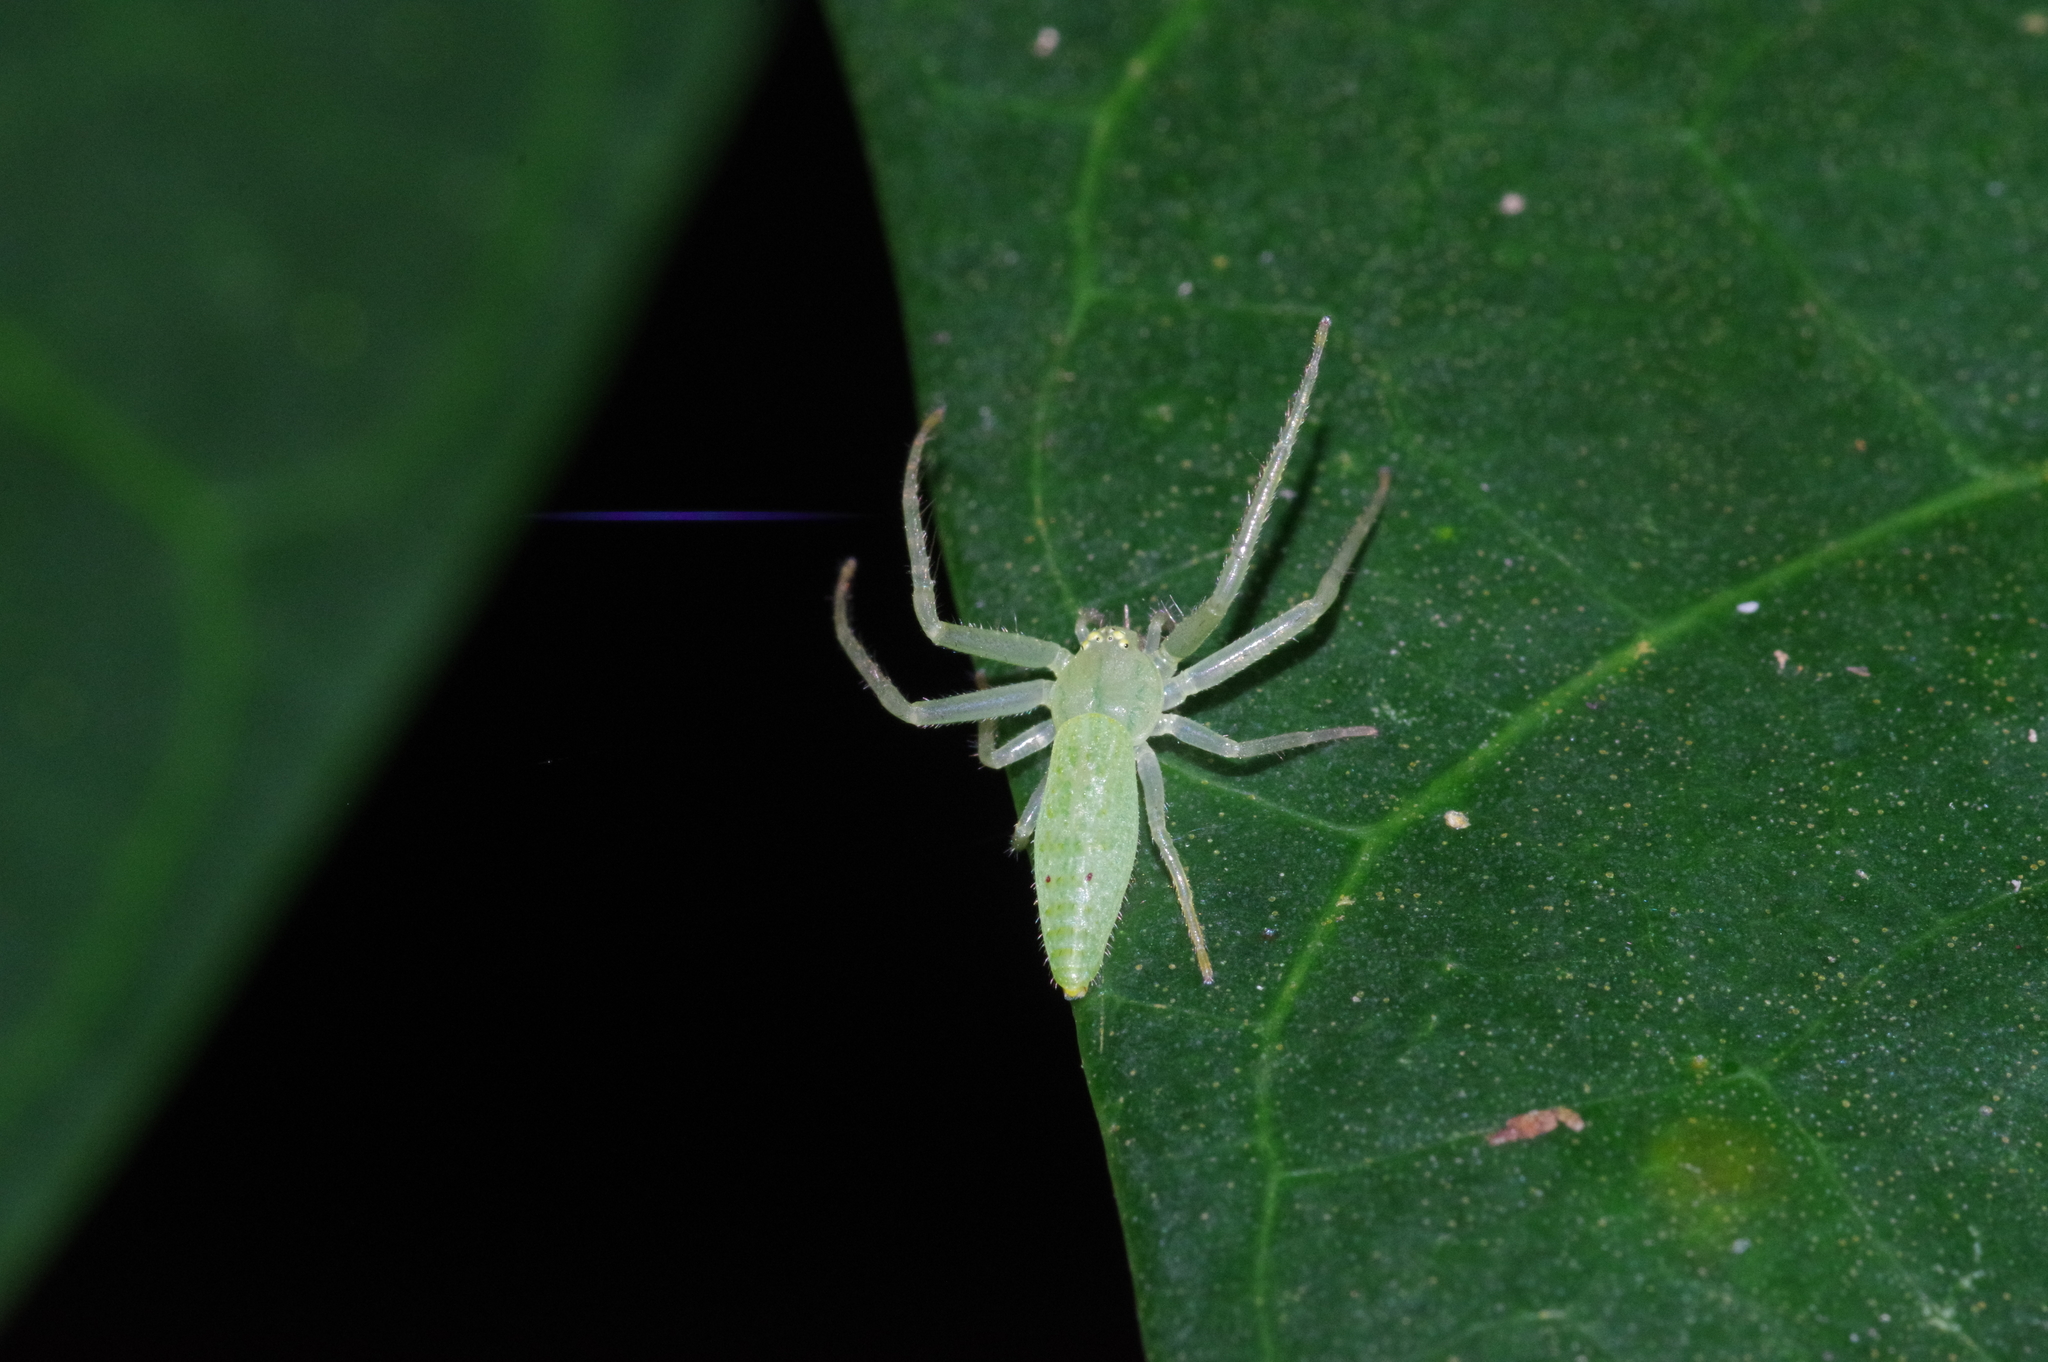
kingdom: Animalia
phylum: Arthropoda
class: Arachnida
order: Araneae
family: Thomisidae
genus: Oxytate
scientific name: Oxytate hoshizuna
